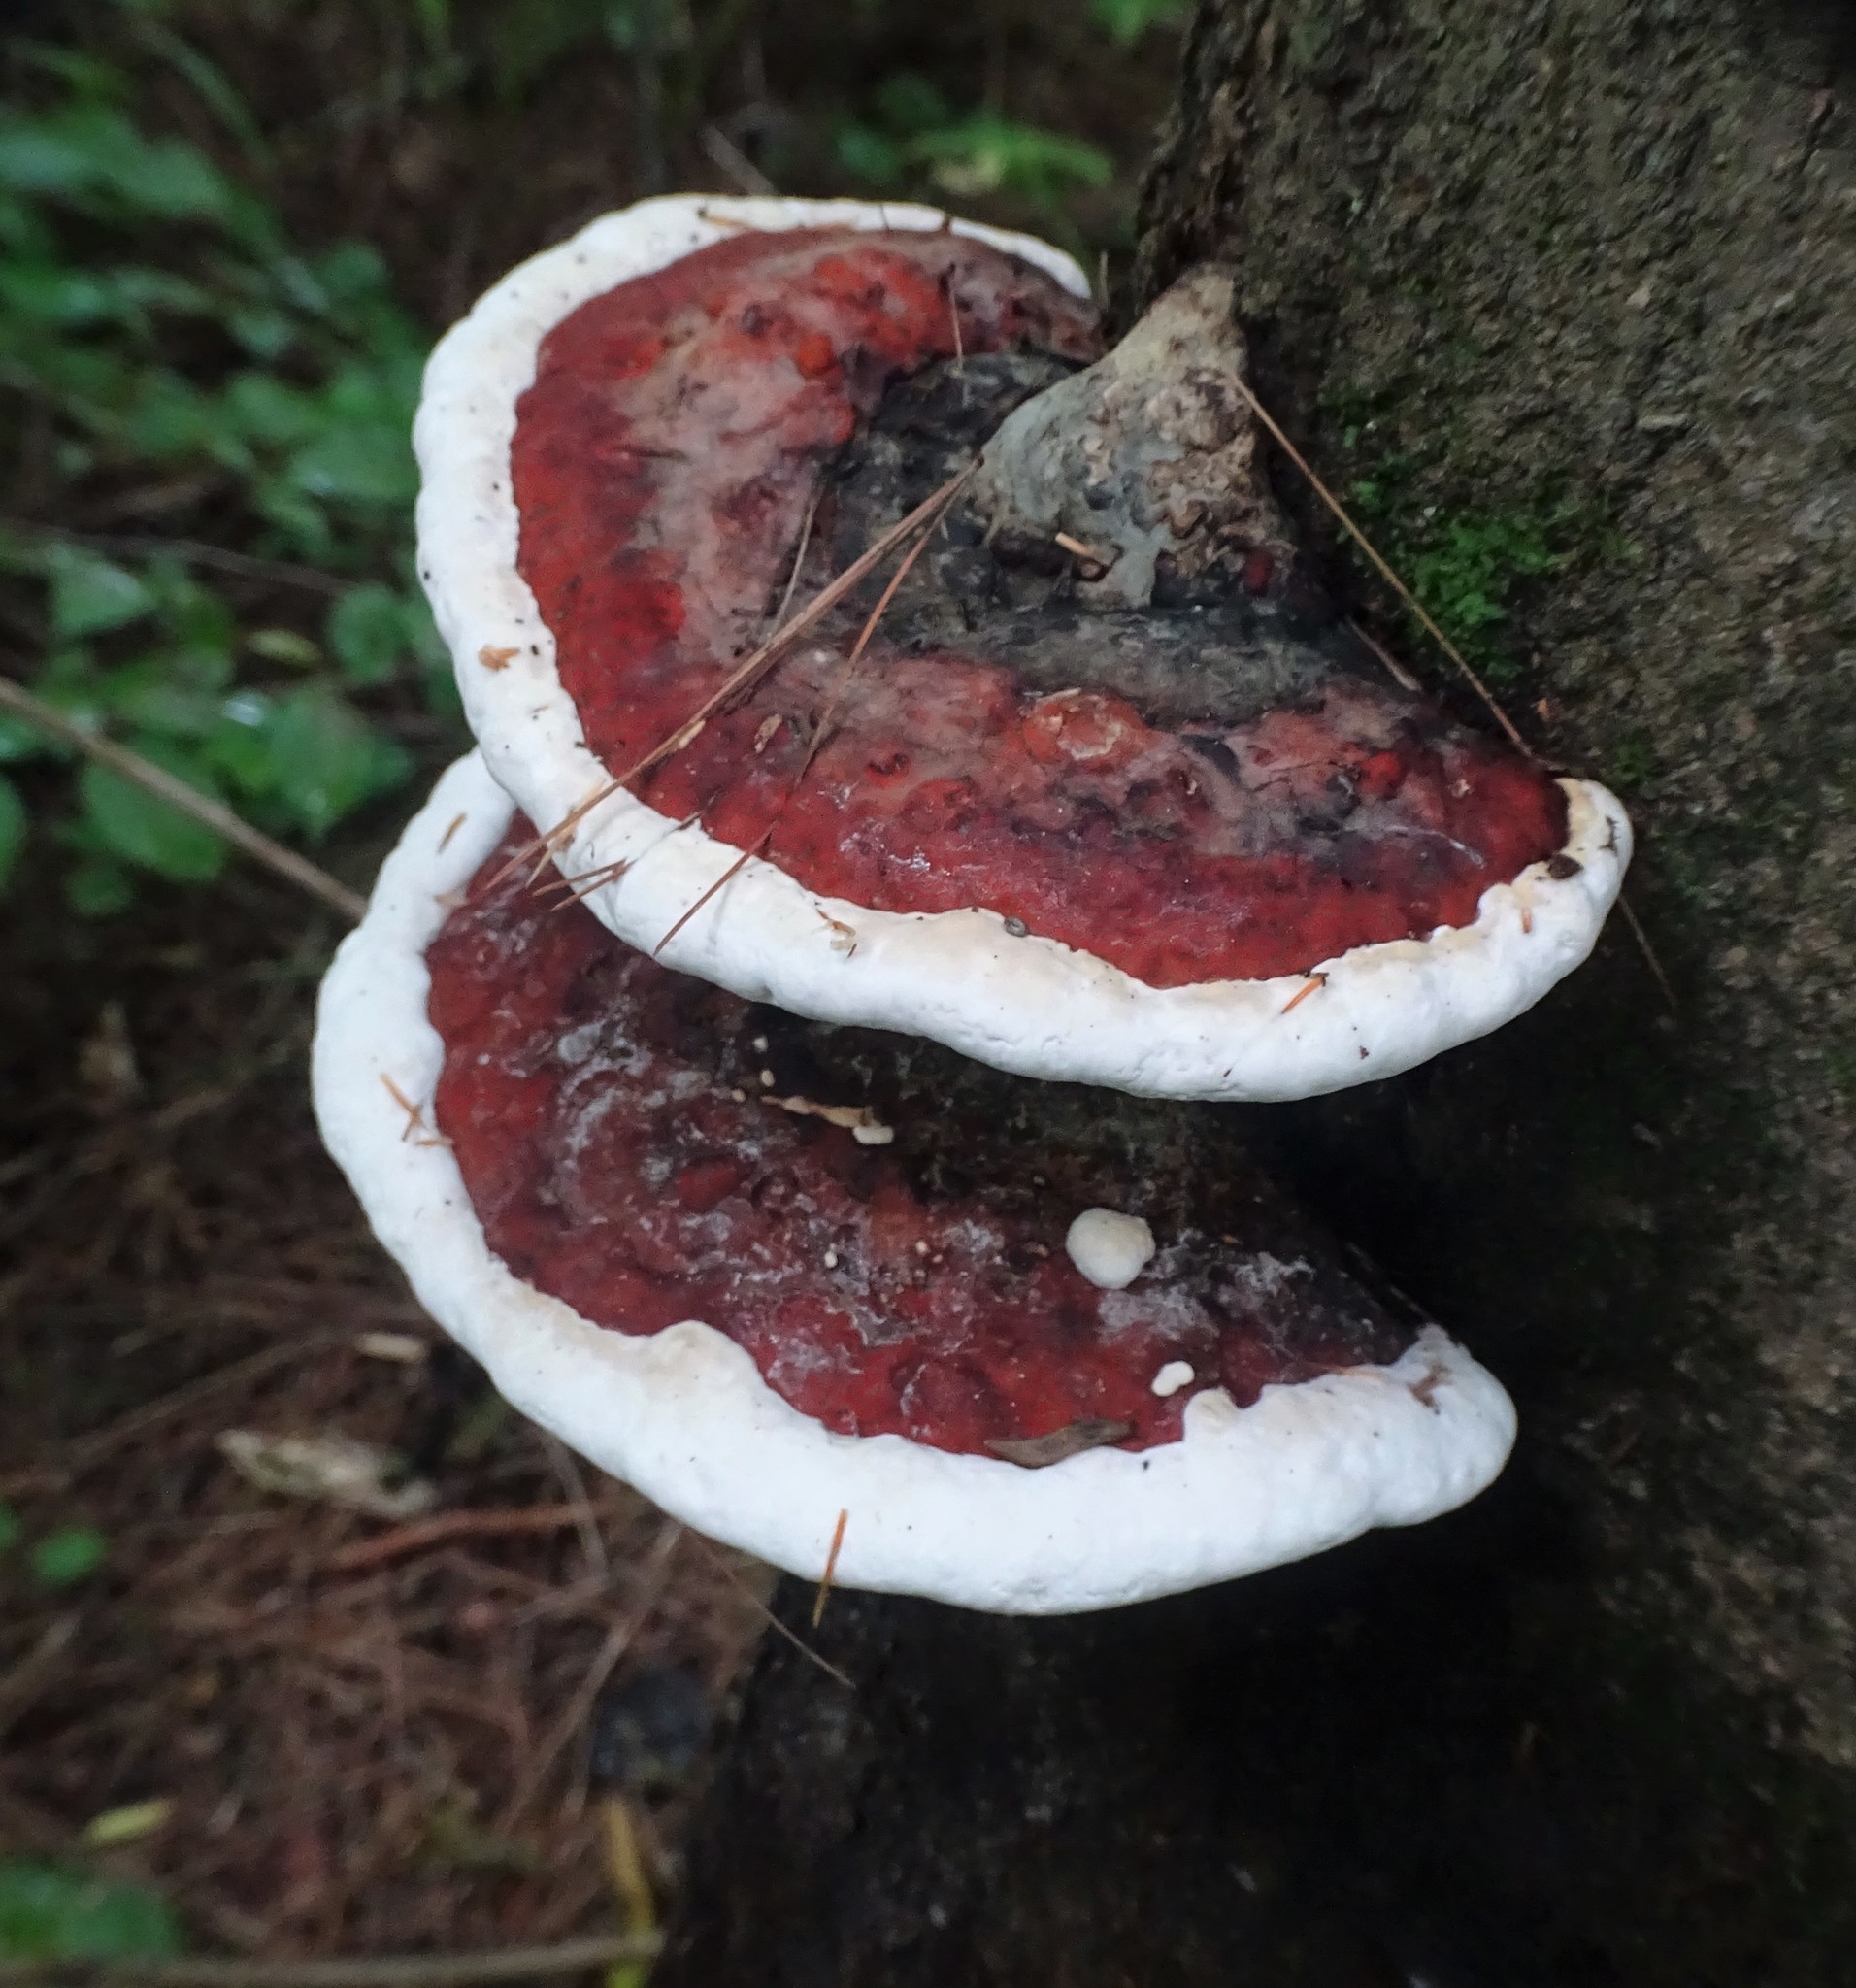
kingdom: Fungi
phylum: Basidiomycota
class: Agaricomycetes
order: Polyporales
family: Fomitopsidaceae
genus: Fomitopsis
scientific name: Fomitopsis mounceae
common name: Northern red belt
